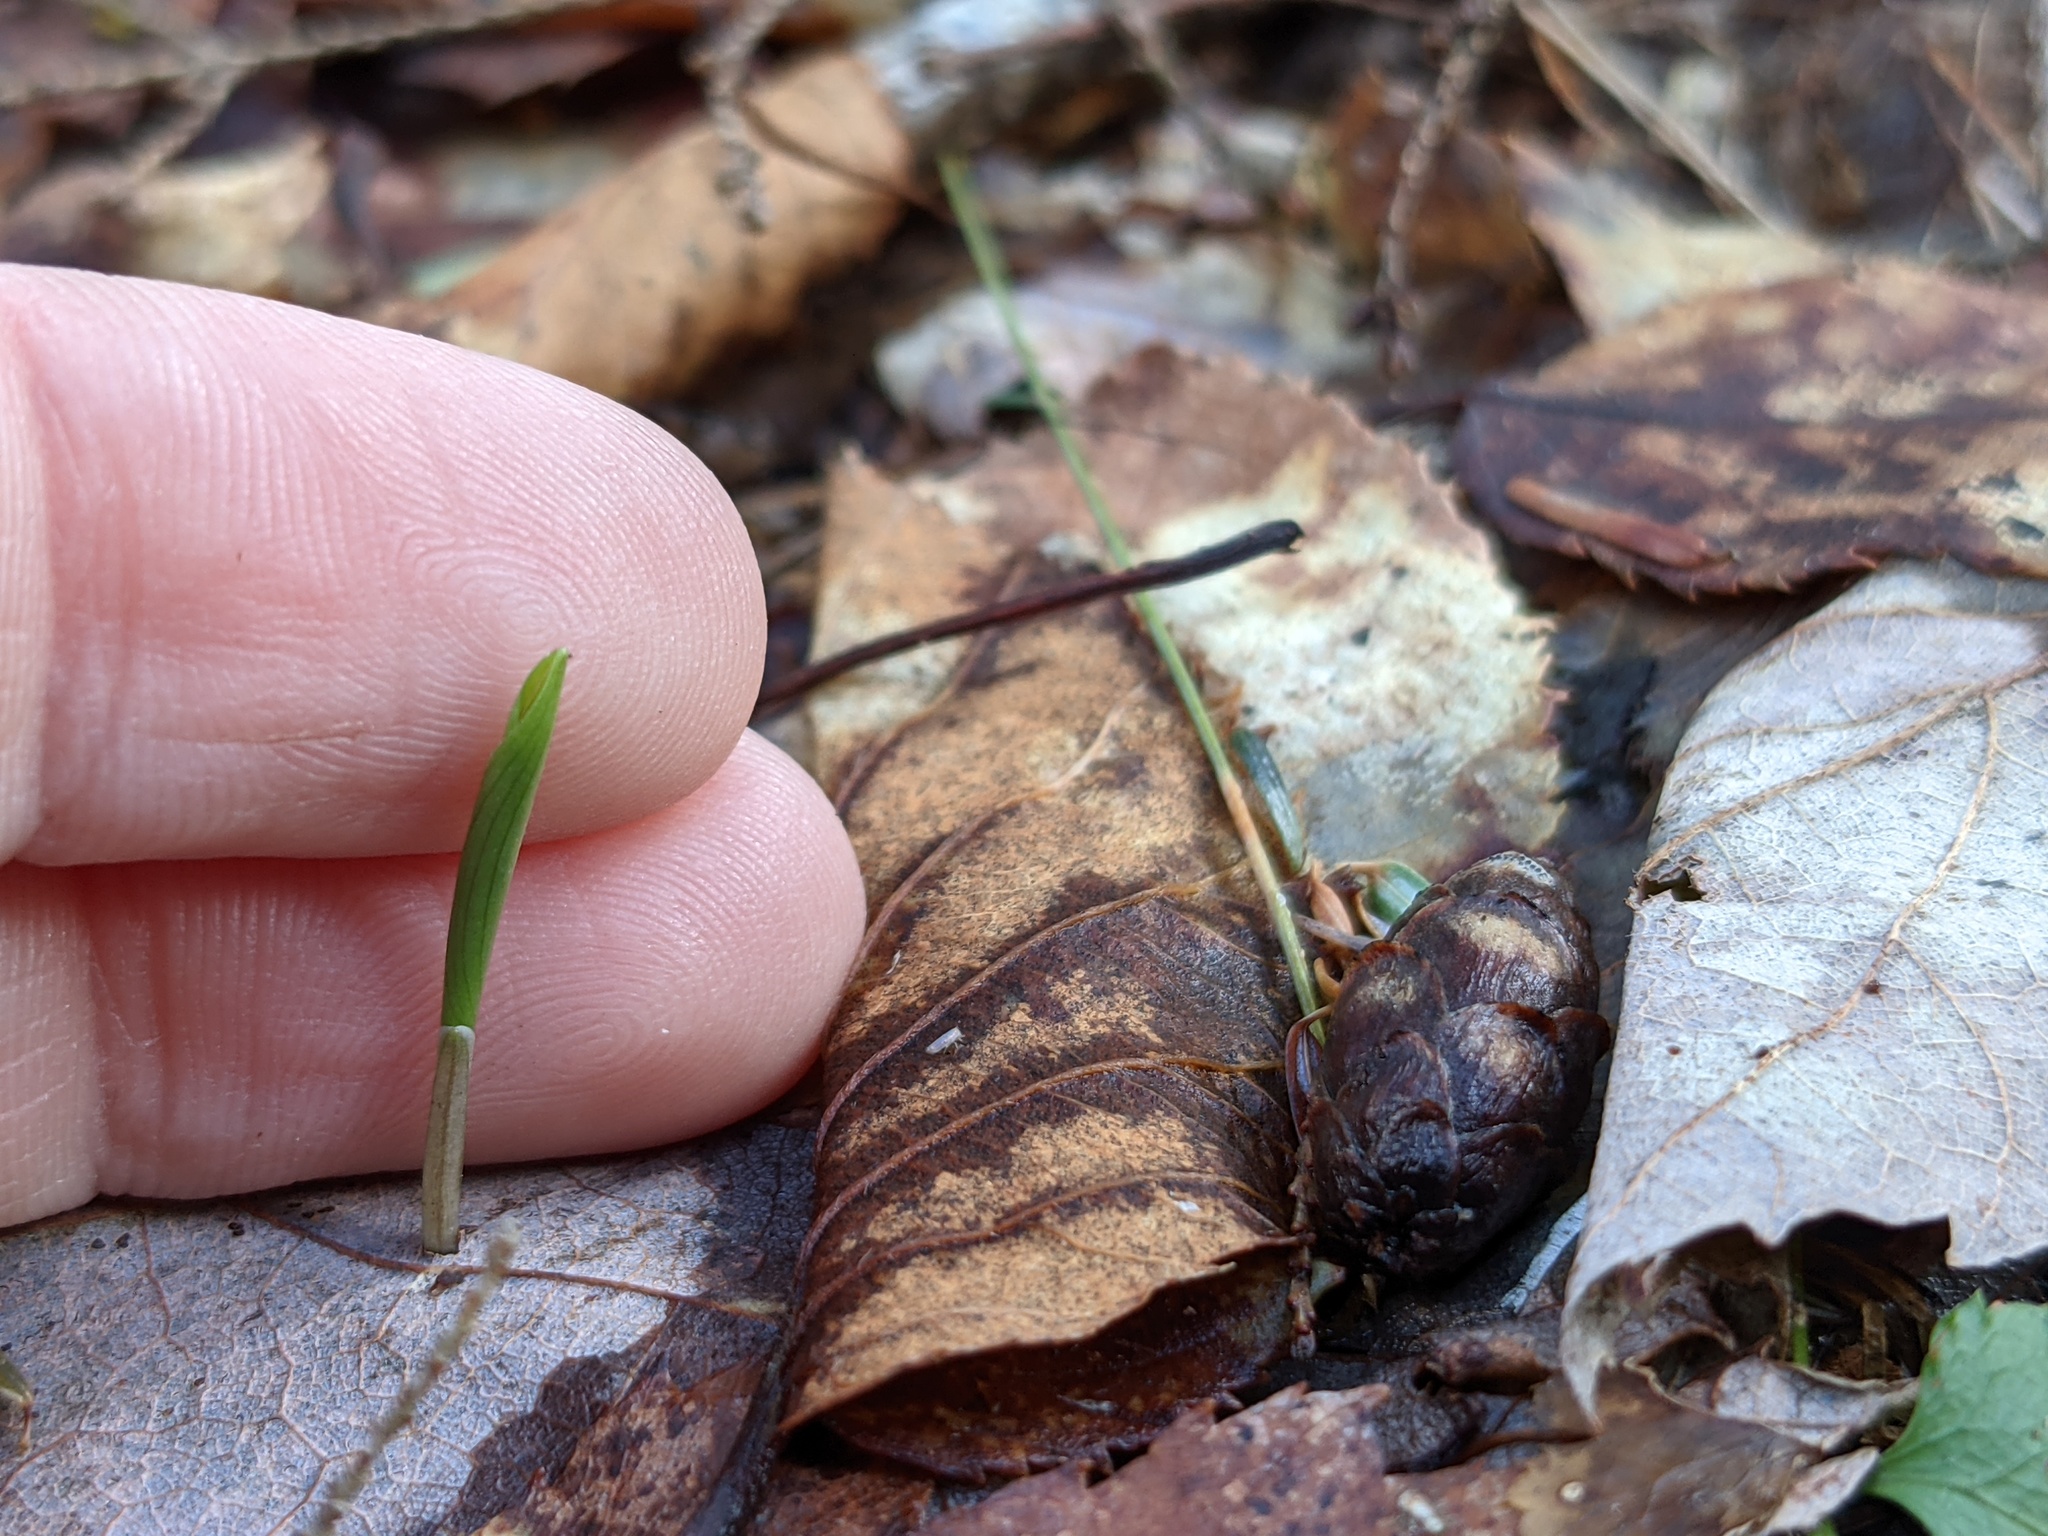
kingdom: Plantae
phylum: Tracheophyta
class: Liliopsida
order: Asparagales
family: Asparagaceae
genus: Maianthemum
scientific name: Maianthemum canadense
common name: False lily-of-the-valley
